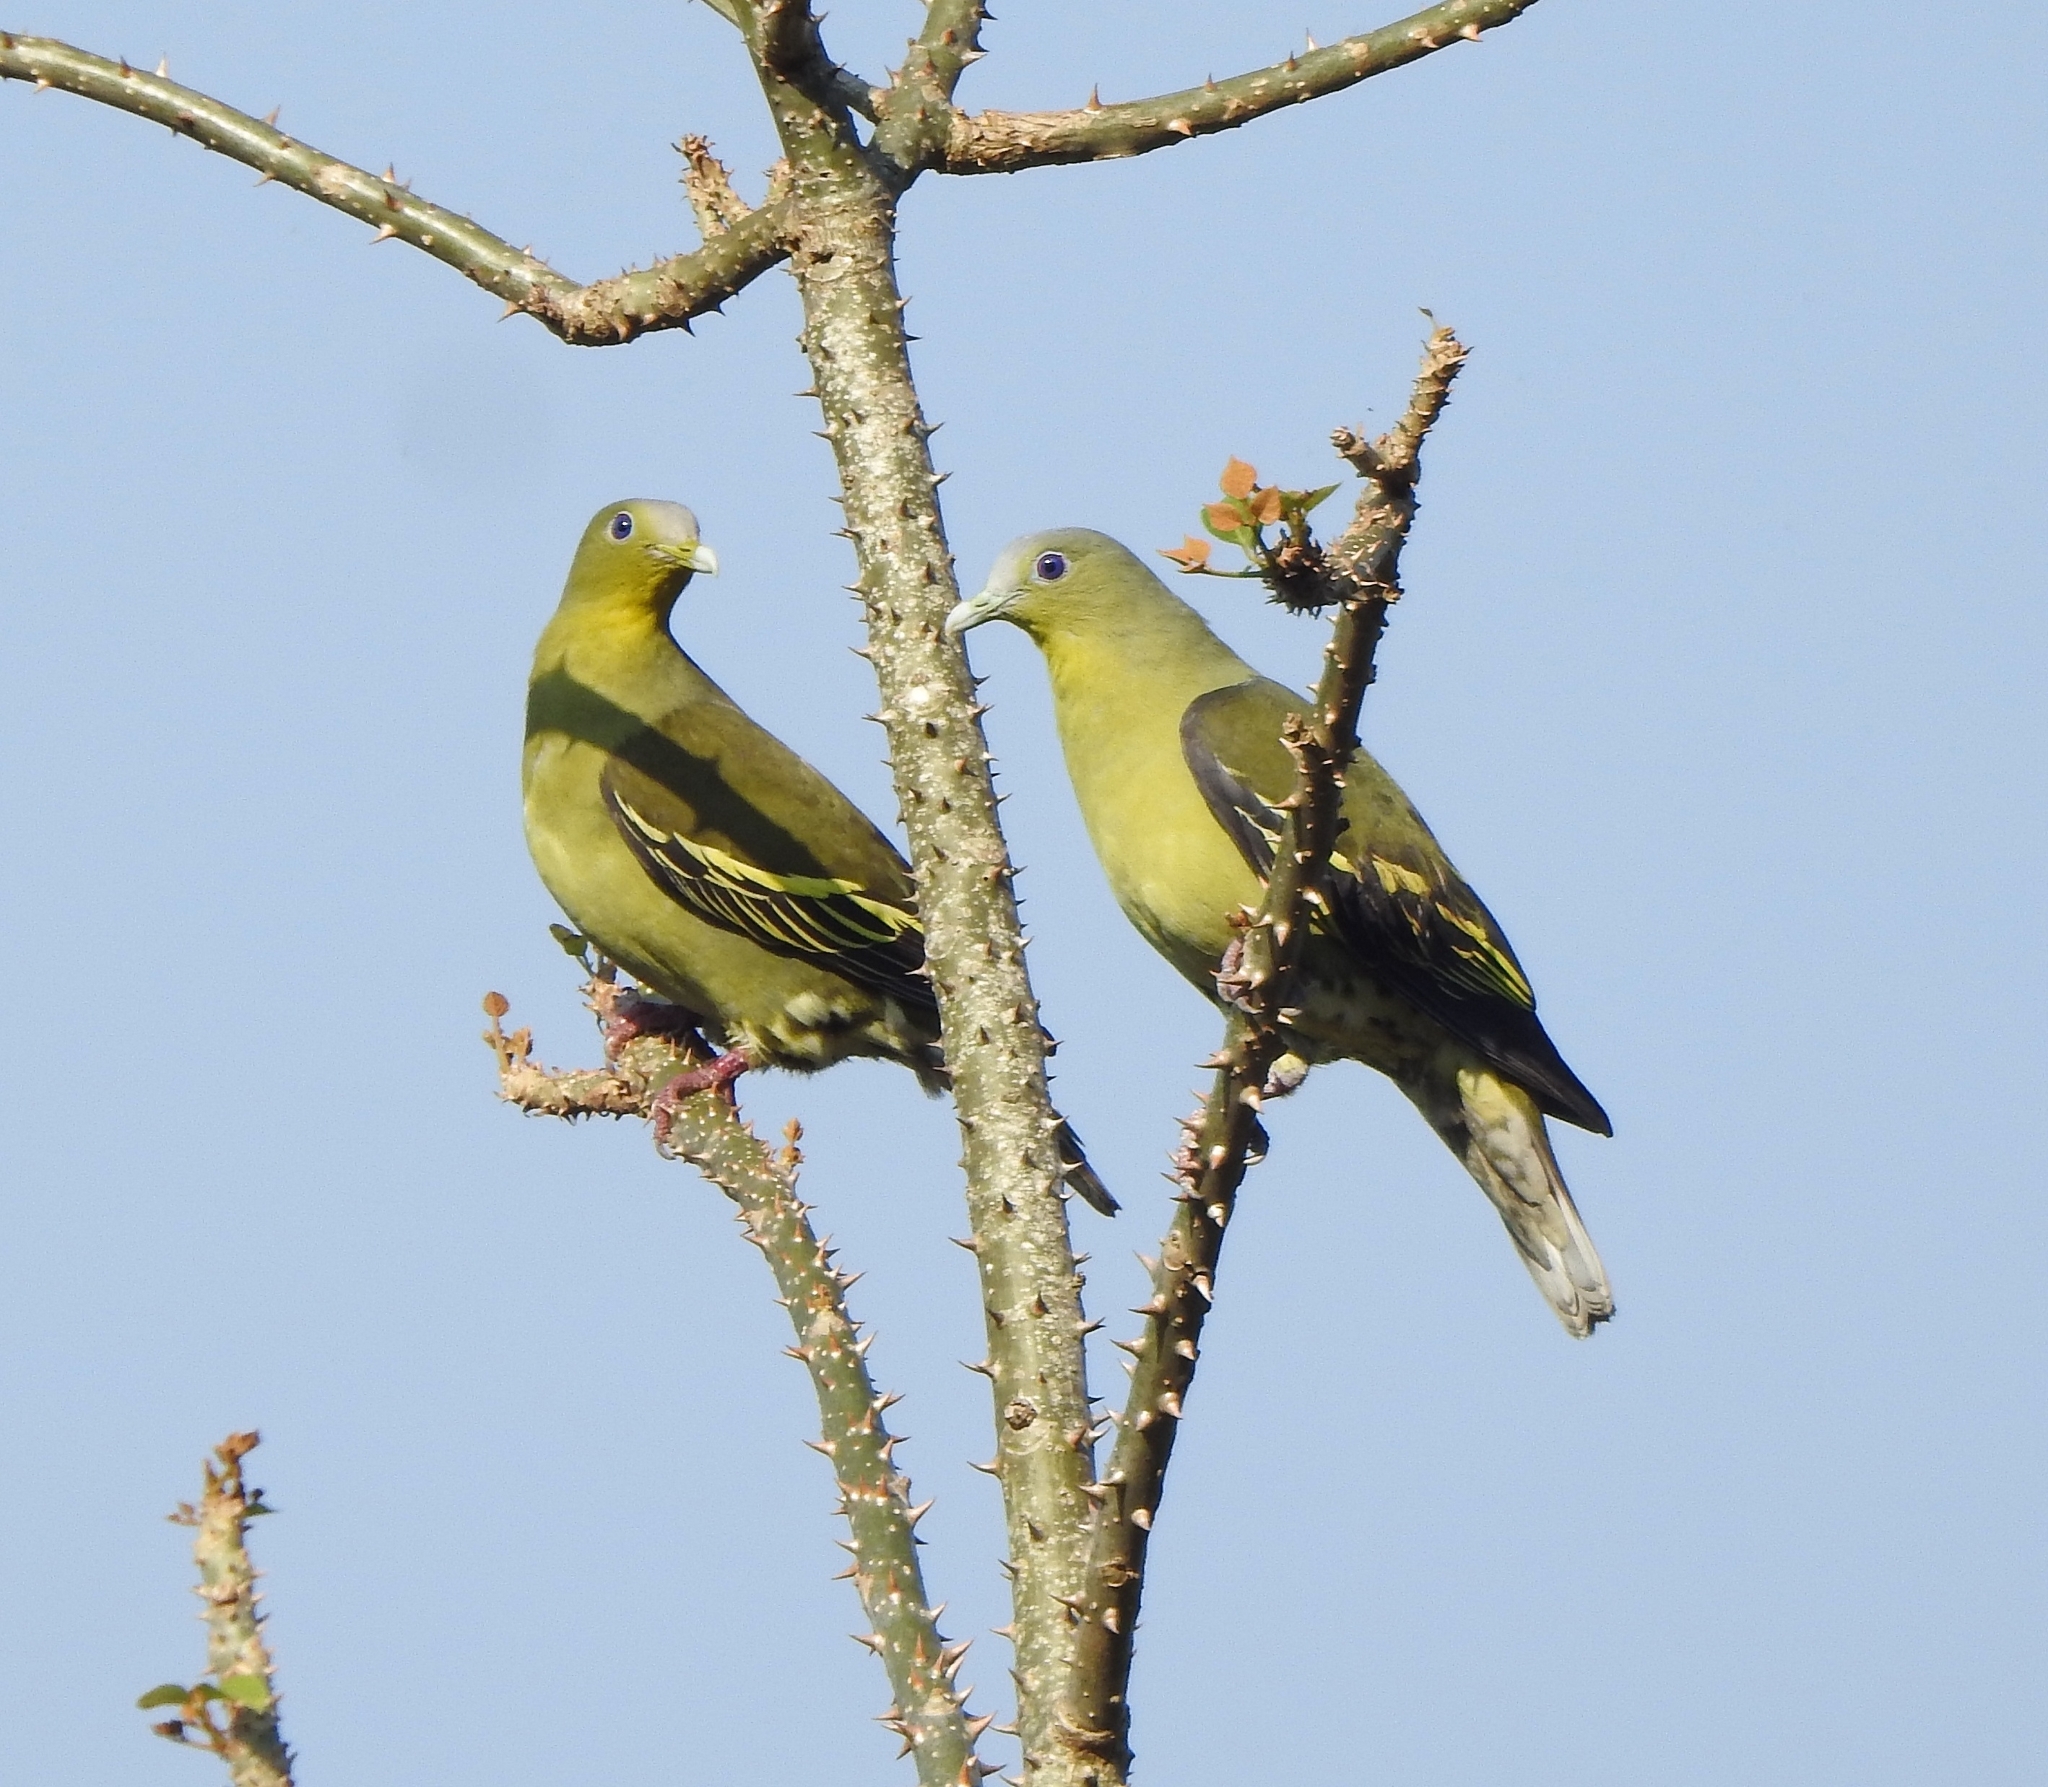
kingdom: Animalia
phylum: Chordata
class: Aves
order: Columbiformes
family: Columbidae
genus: Treron
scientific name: Treron affinis
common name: Grey-fronted green pigeon
